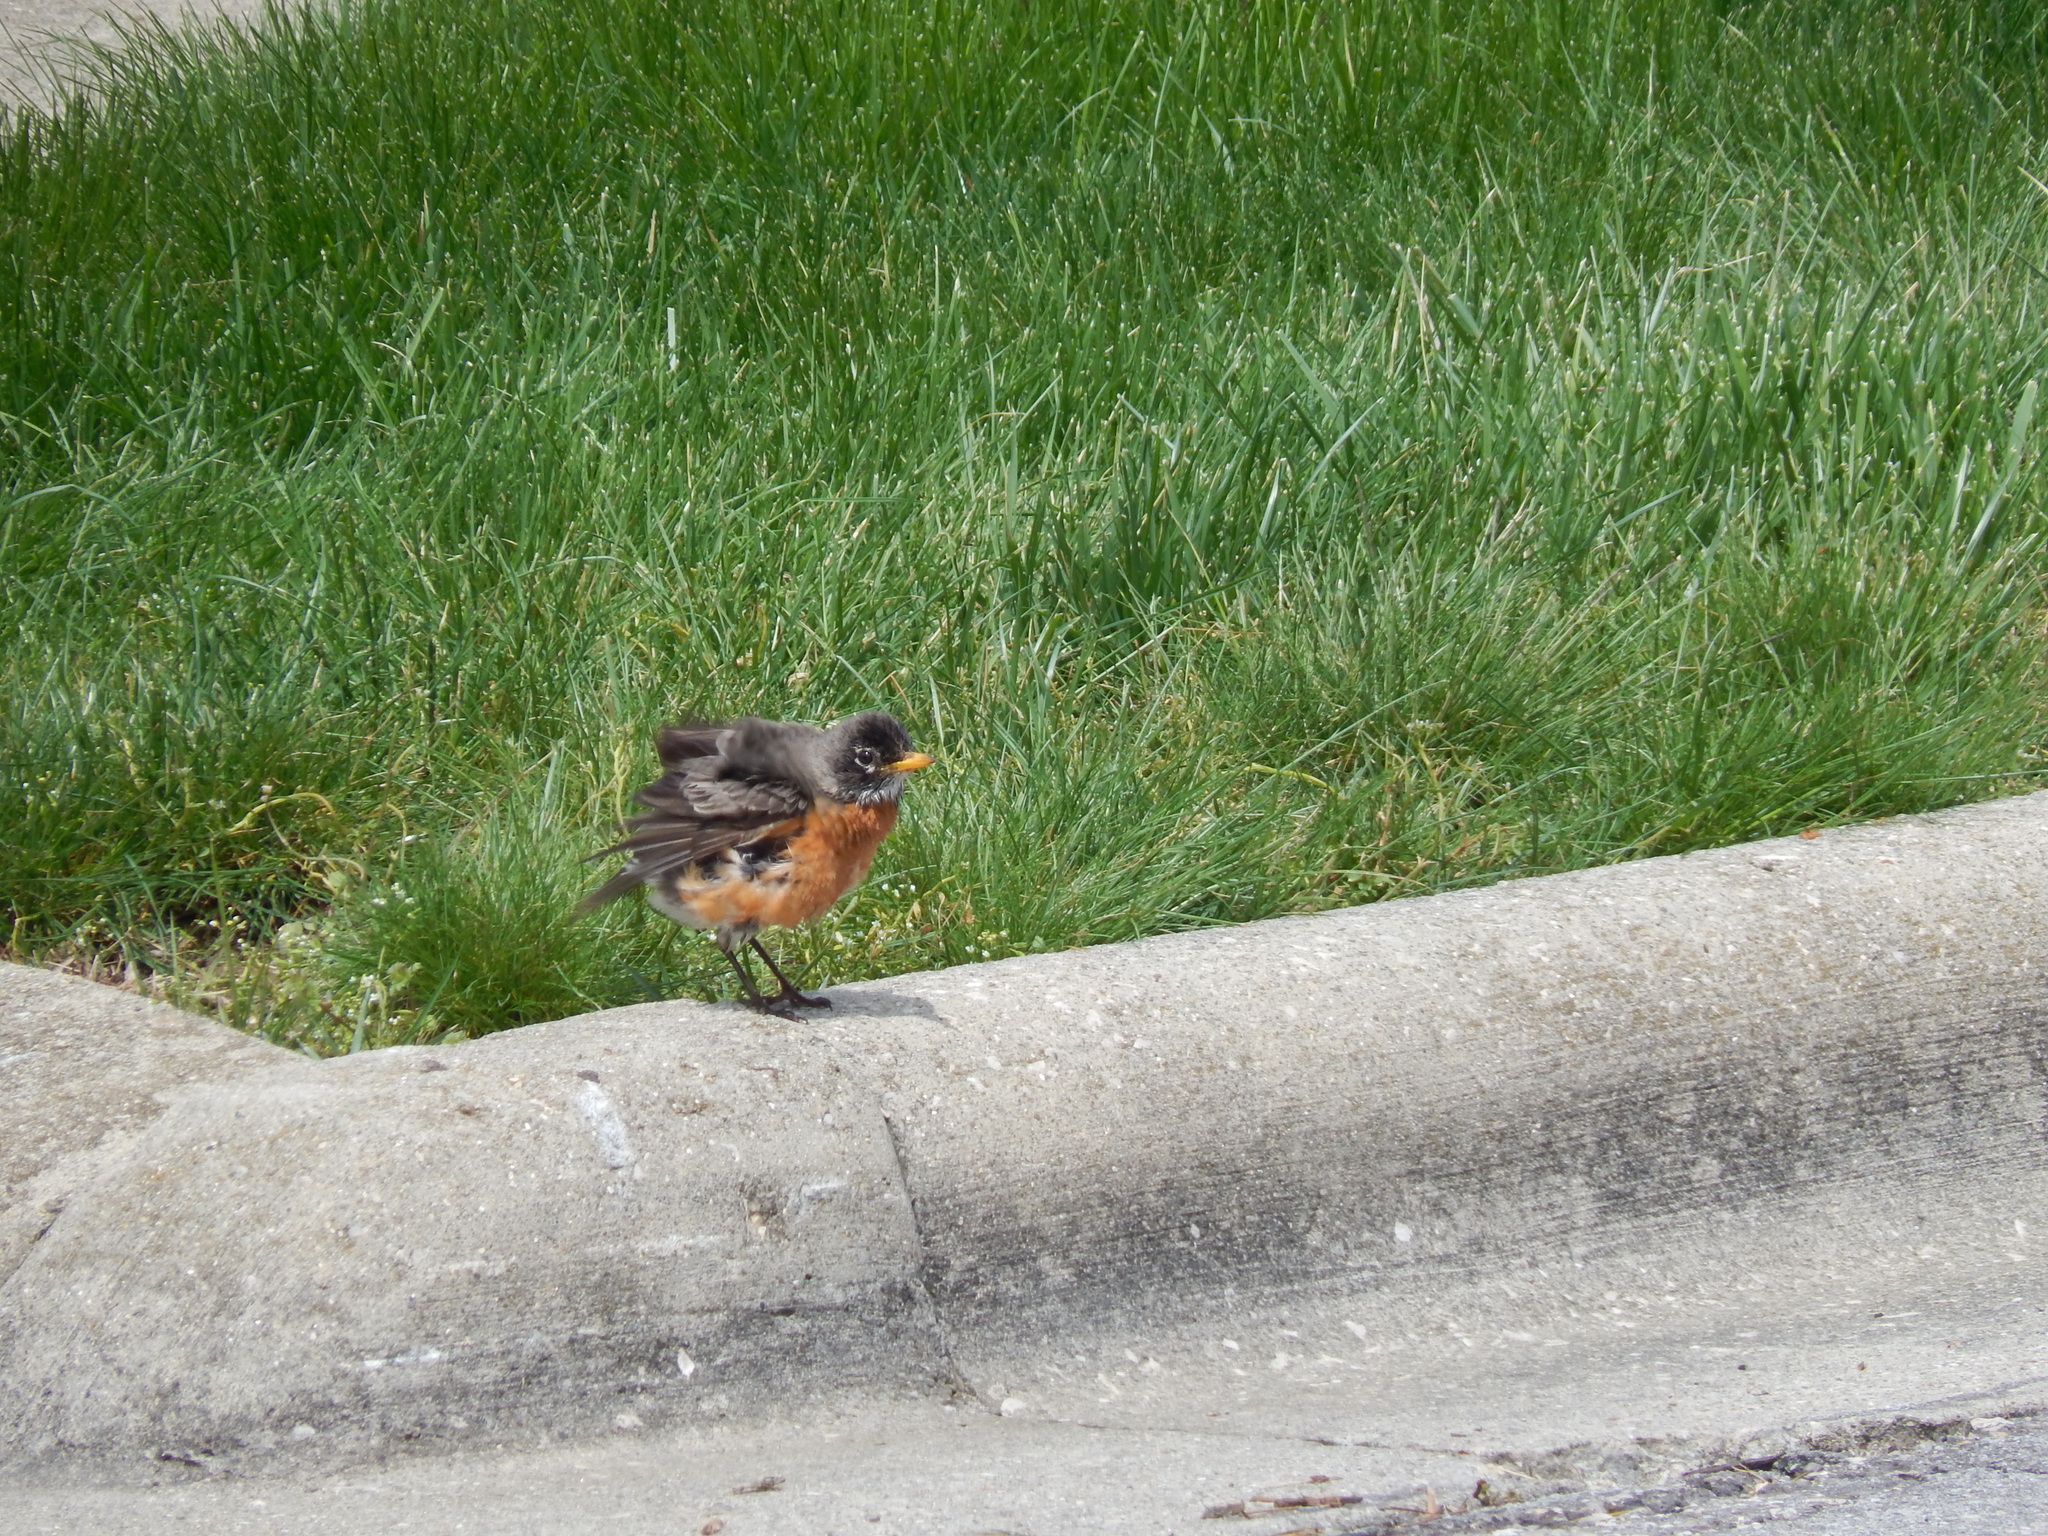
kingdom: Animalia
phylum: Chordata
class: Aves
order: Passeriformes
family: Turdidae
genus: Turdus
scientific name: Turdus migratorius
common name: American robin
